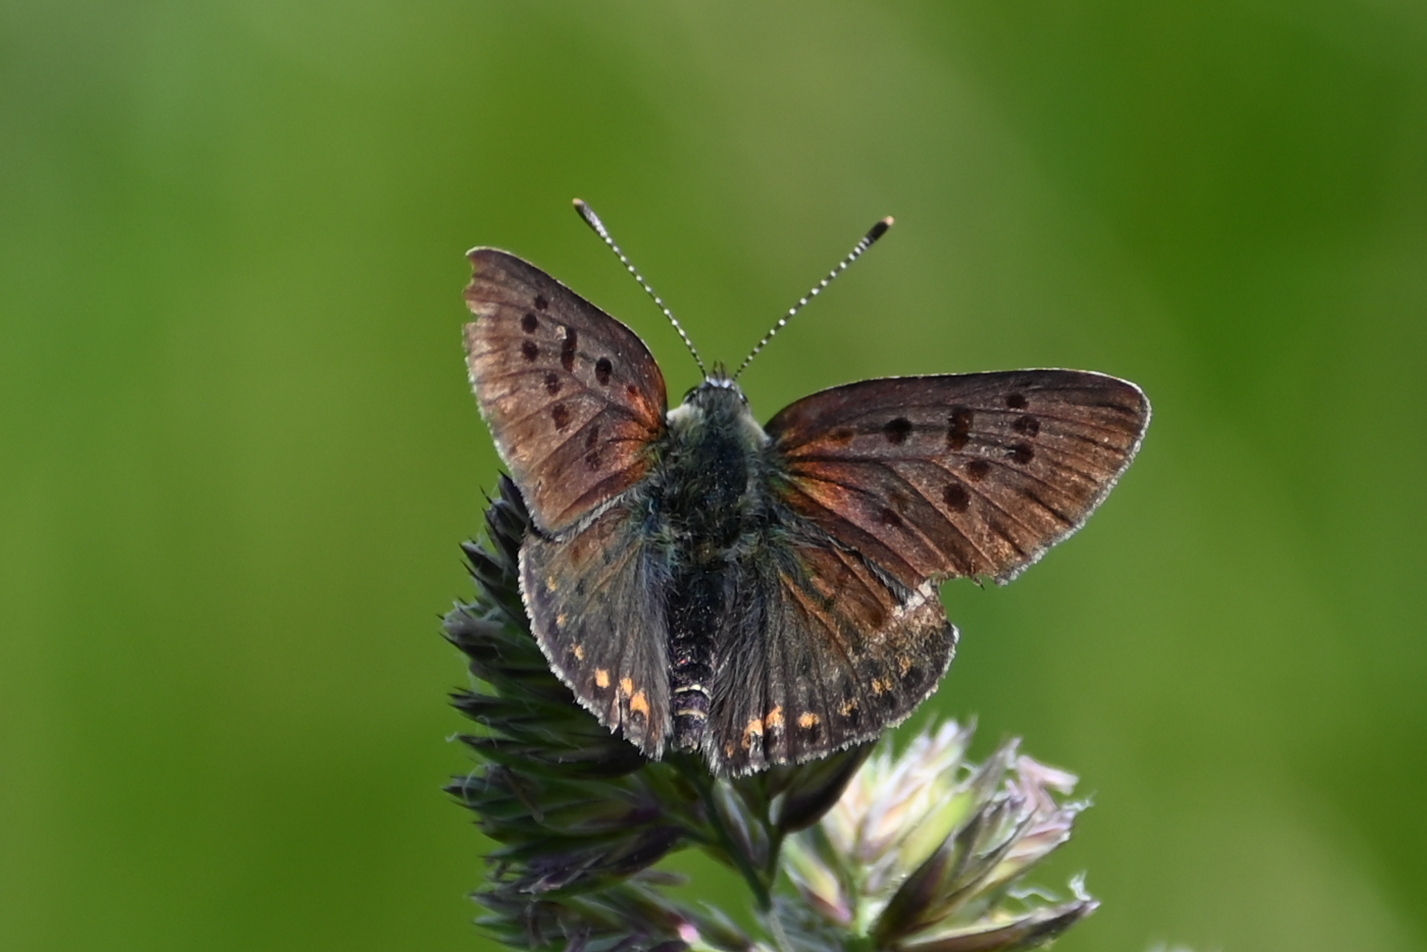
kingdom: Animalia
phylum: Arthropoda
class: Insecta
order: Lepidoptera
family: Lycaenidae
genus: Loweia
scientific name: Loweia tityrus
